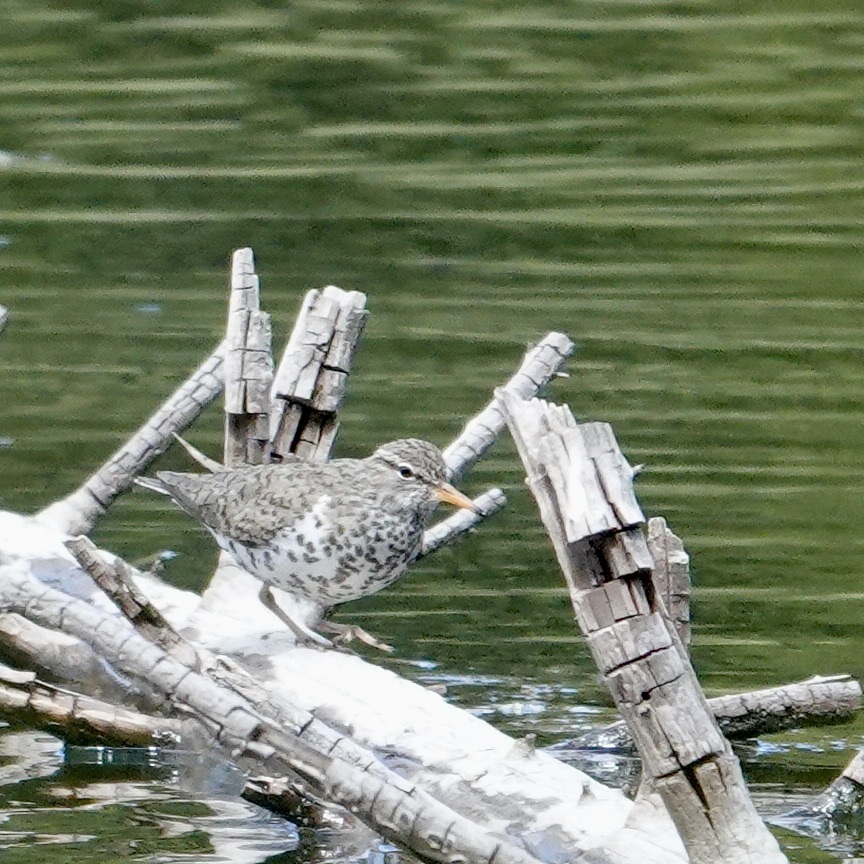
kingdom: Animalia
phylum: Chordata
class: Aves
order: Charadriiformes
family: Scolopacidae
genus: Actitis
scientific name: Actitis macularius
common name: Spotted sandpiper
